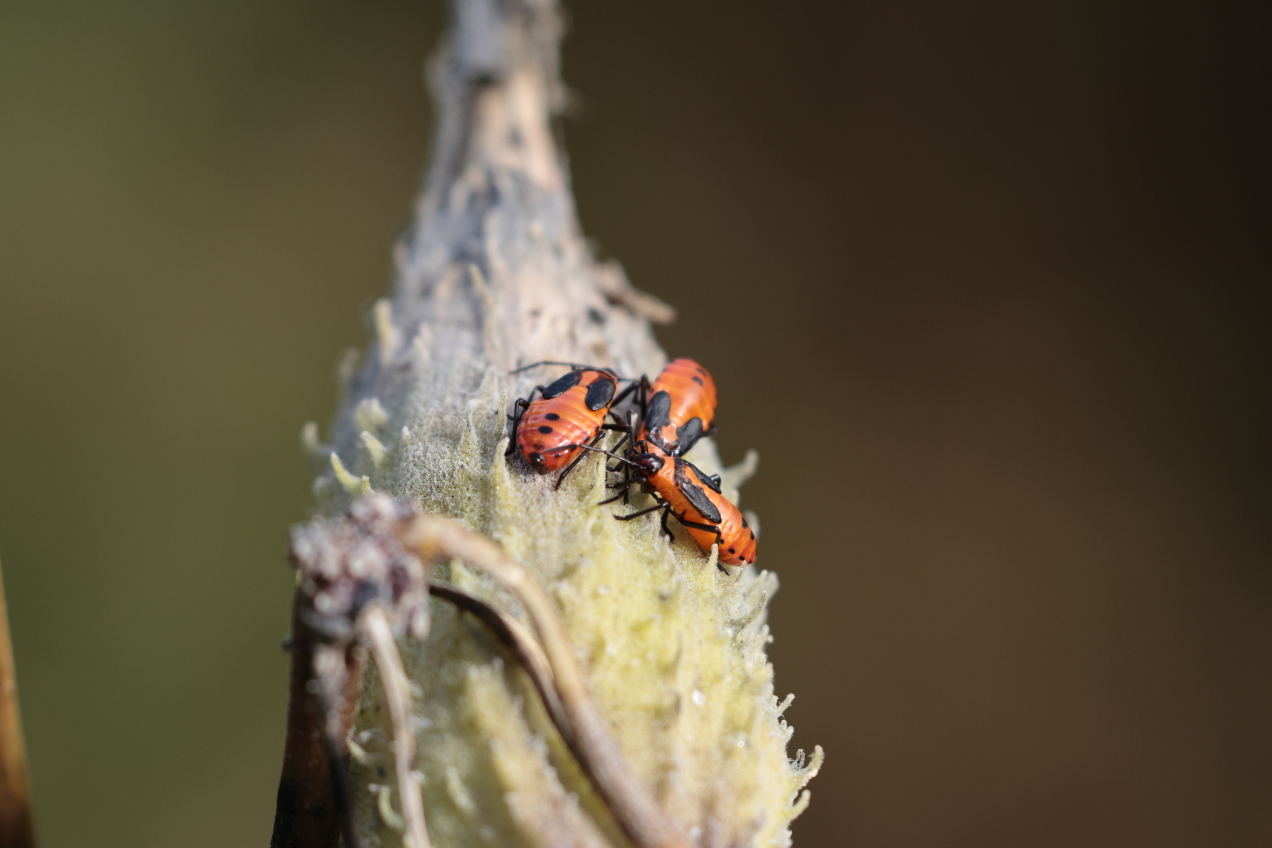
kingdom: Animalia
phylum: Arthropoda
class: Insecta
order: Hemiptera
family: Lygaeidae
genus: Oncopeltus
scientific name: Oncopeltus fasciatus
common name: Large milkweed bug
